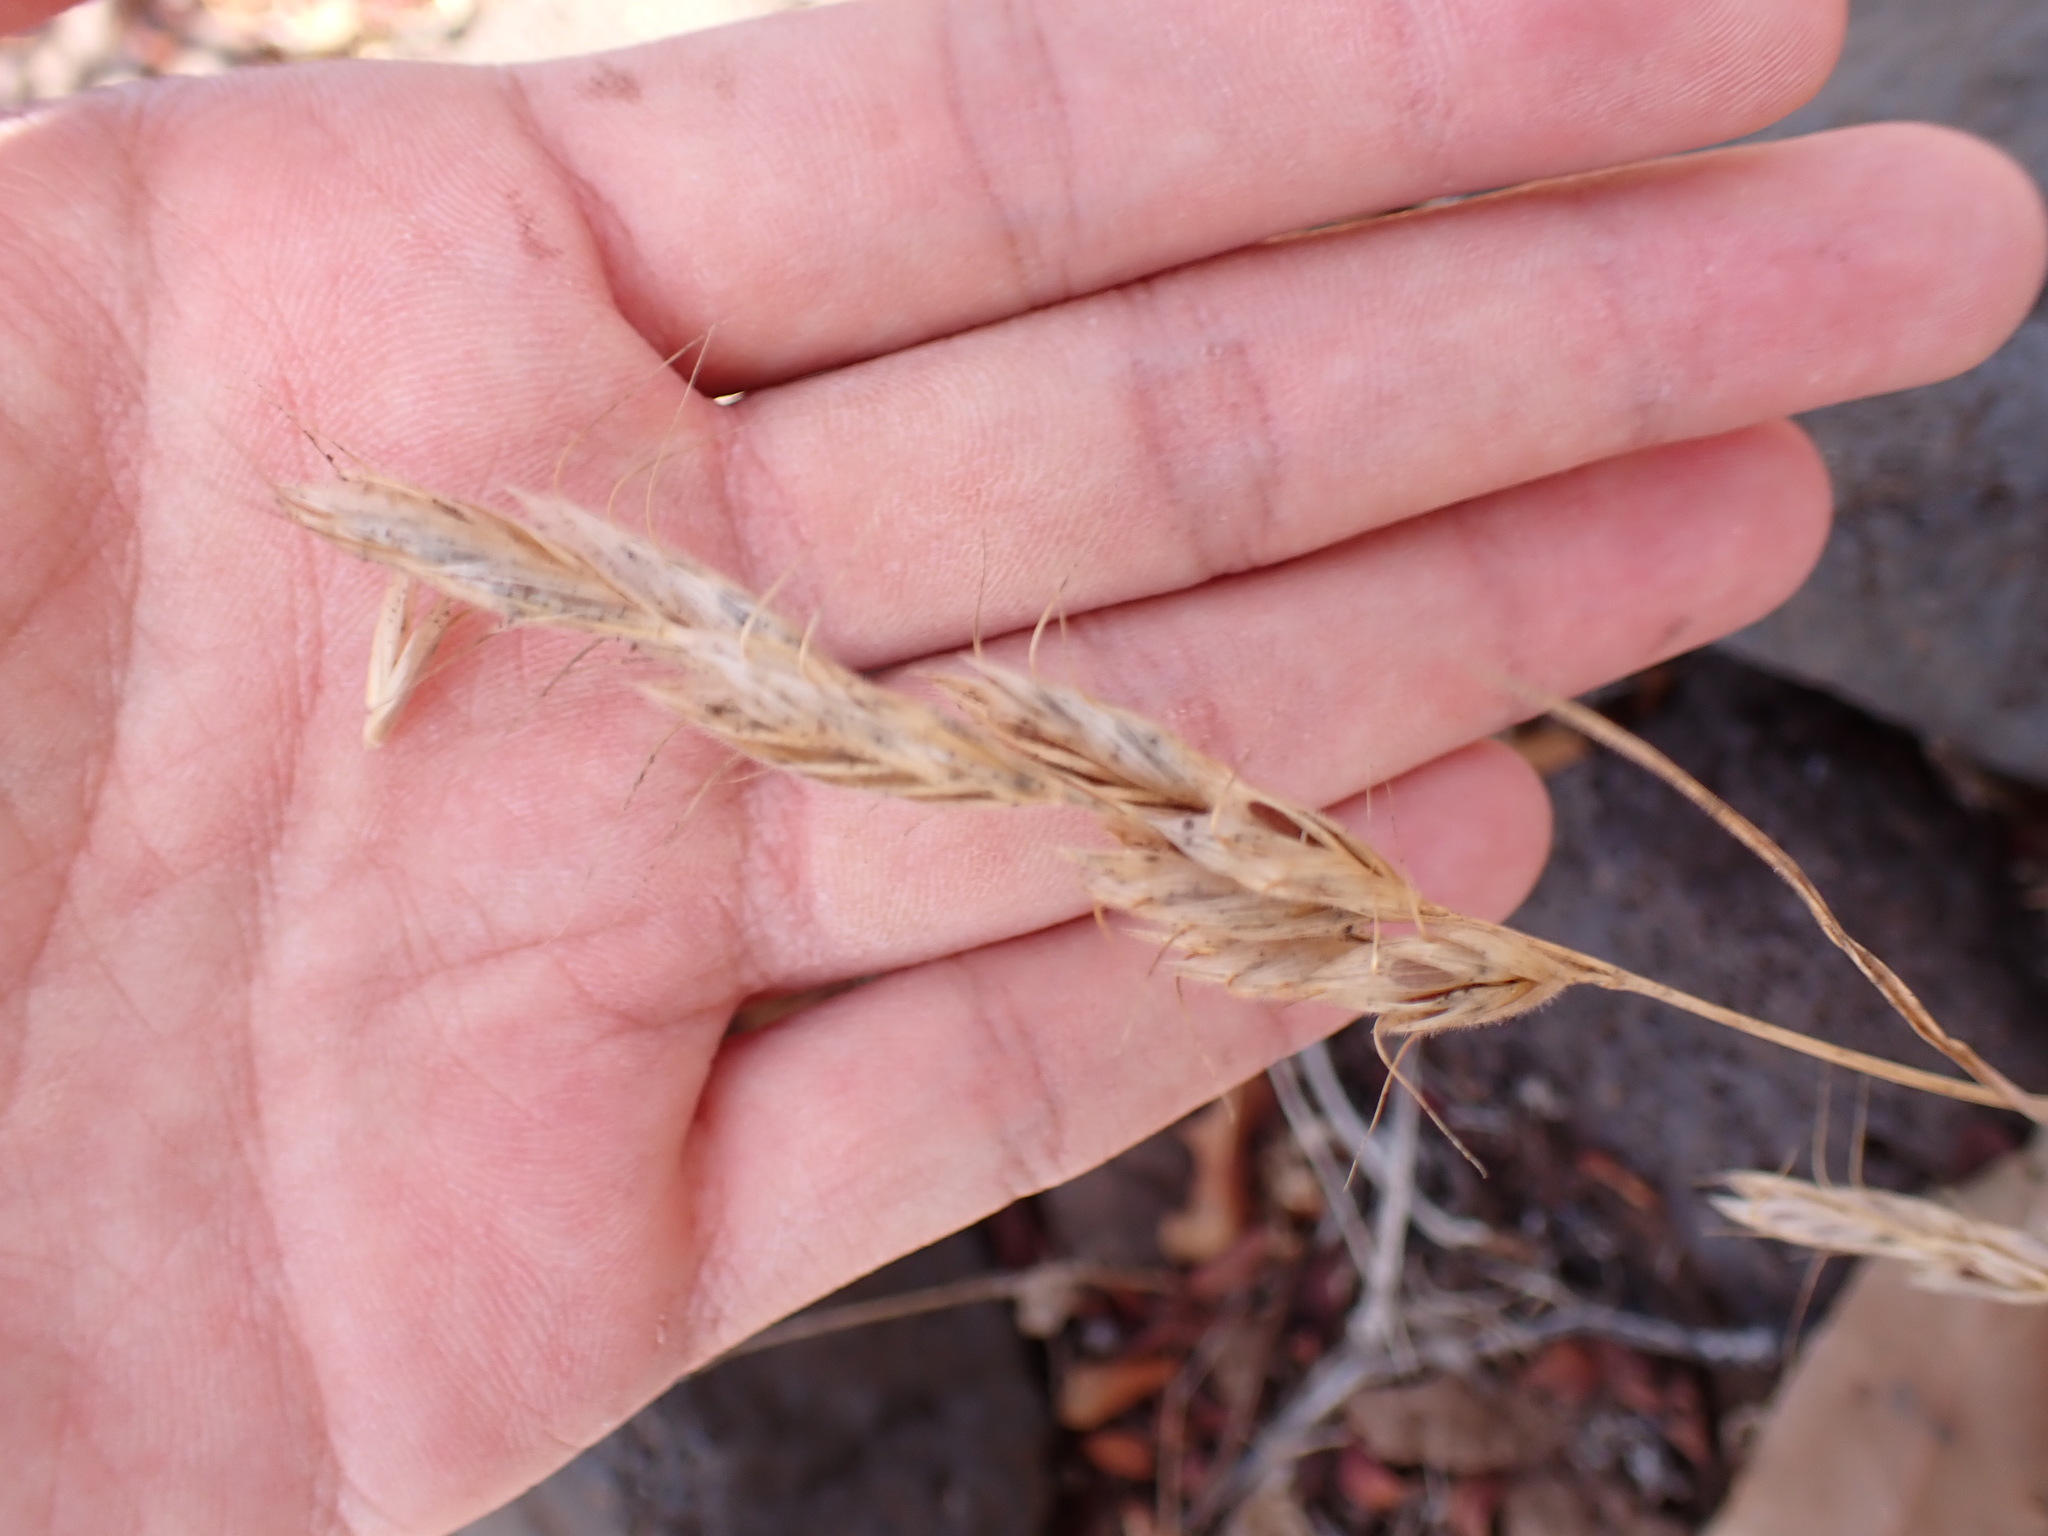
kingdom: Plantae
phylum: Tracheophyta
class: Liliopsida
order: Poales
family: Poaceae
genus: Bromus
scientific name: Bromus lanceolatus
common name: Mediterranean brome
